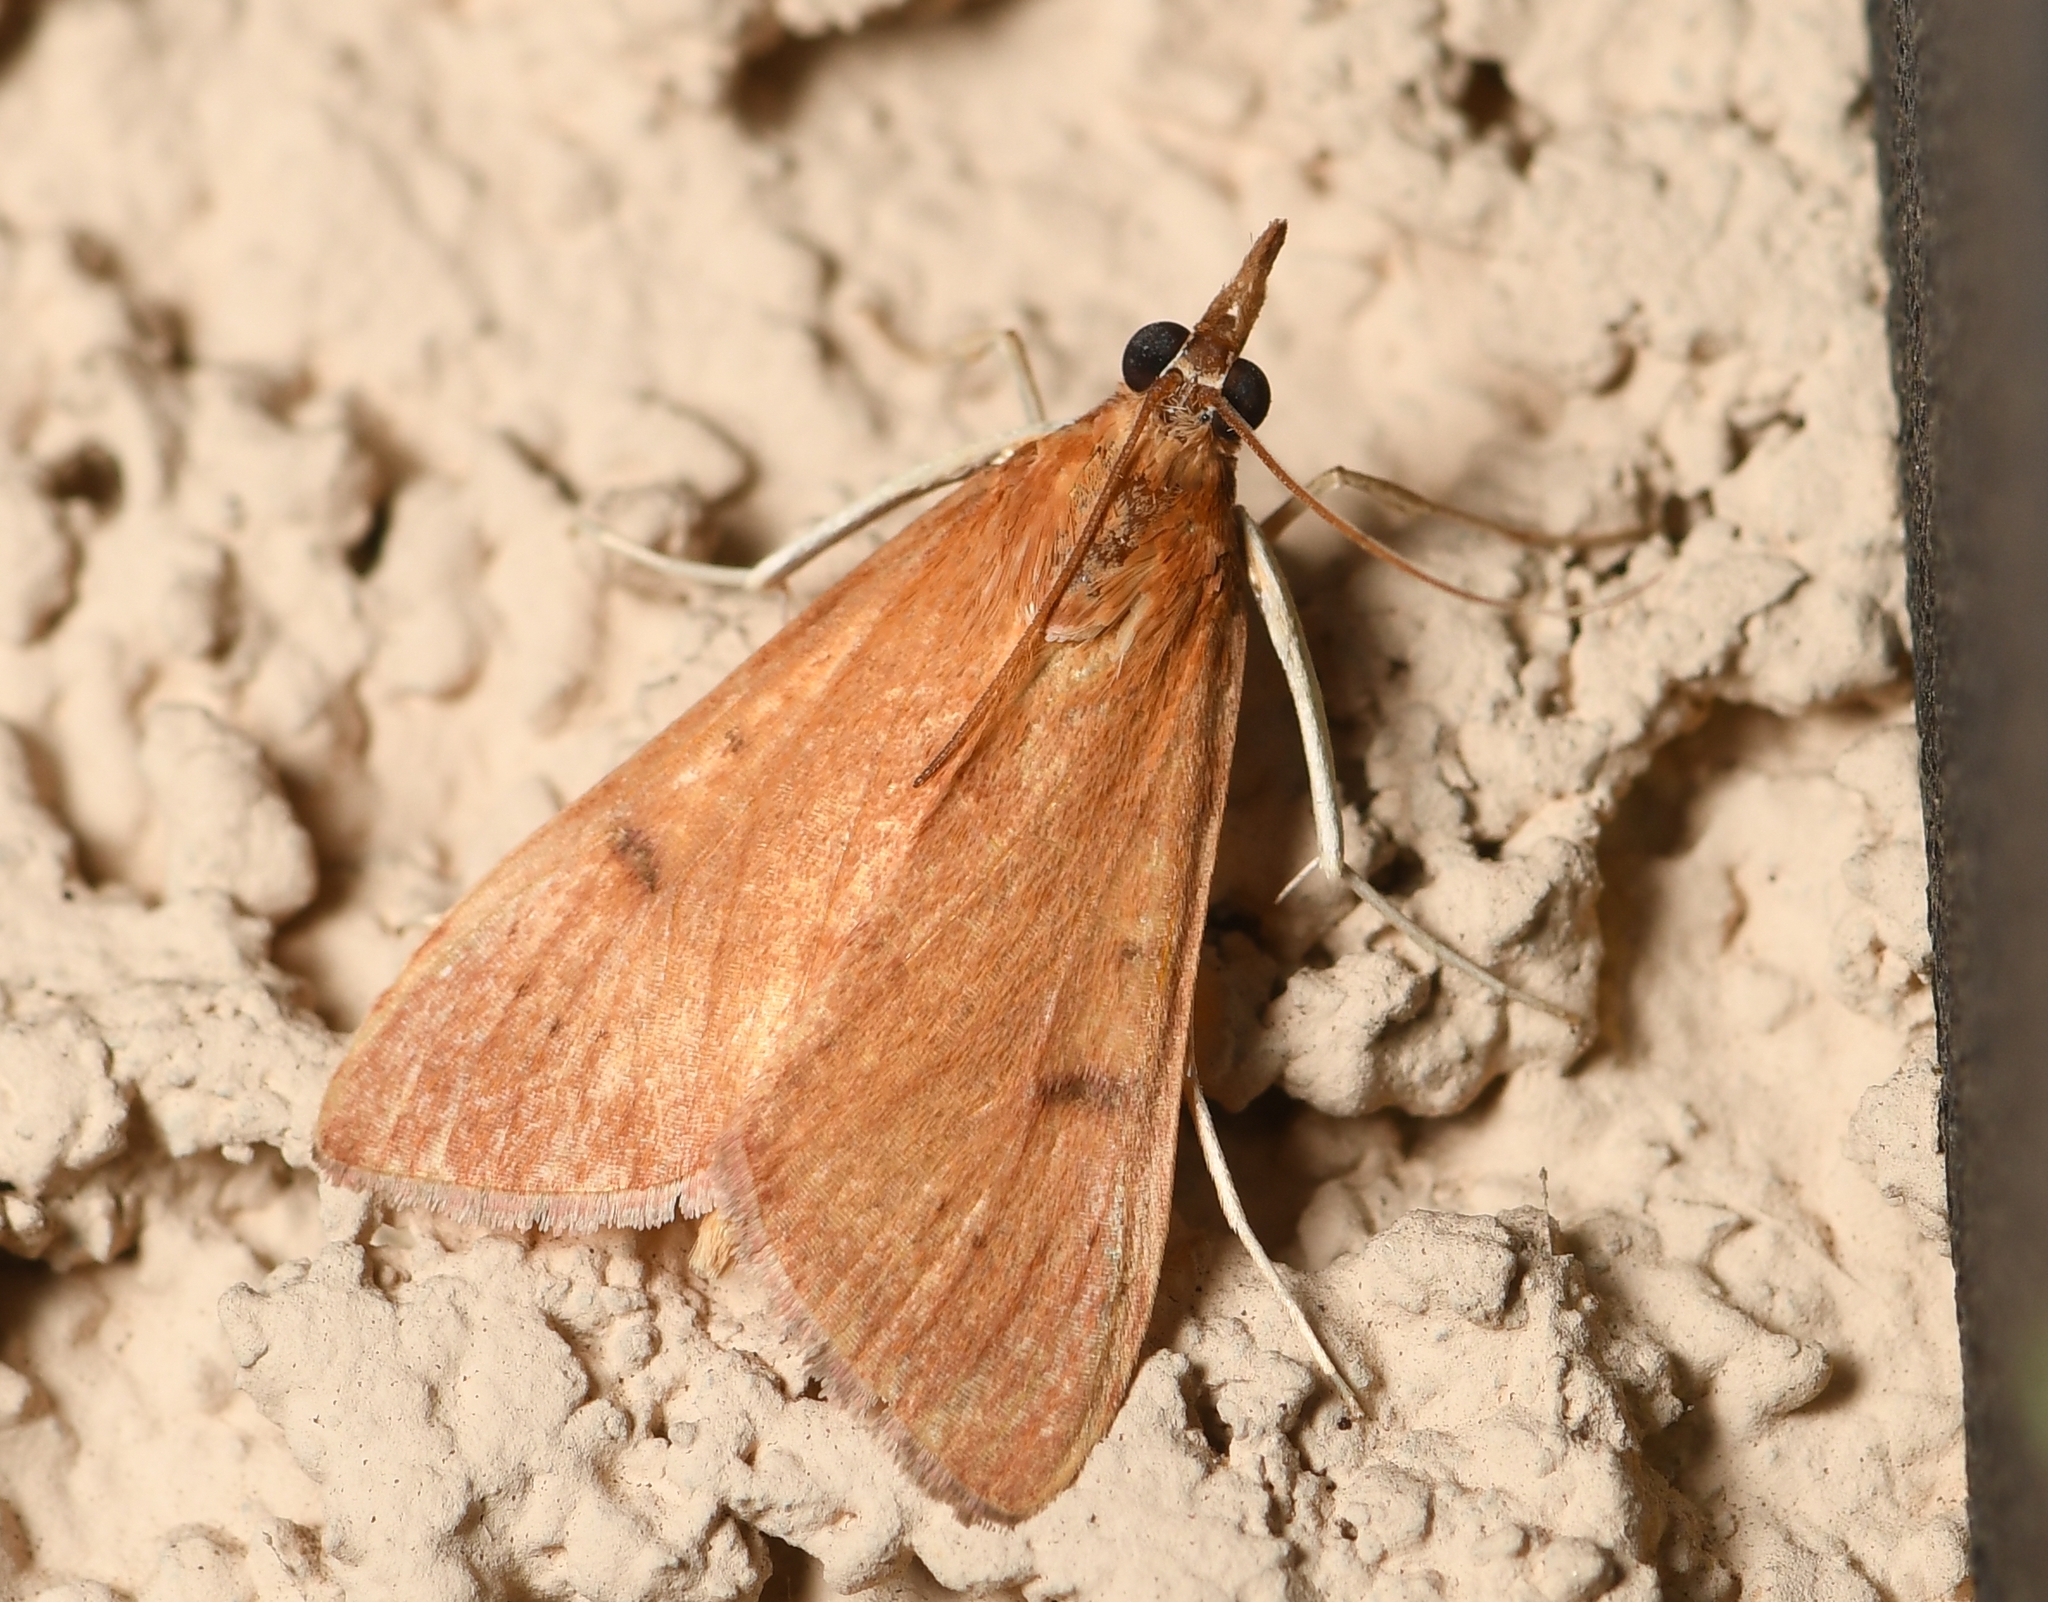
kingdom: Animalia
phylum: Arthropoda
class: Insecta
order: Lepidoptera
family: Crambidae
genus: Uresiphita
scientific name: Uresiphita reversalis
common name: Genista broom moth
